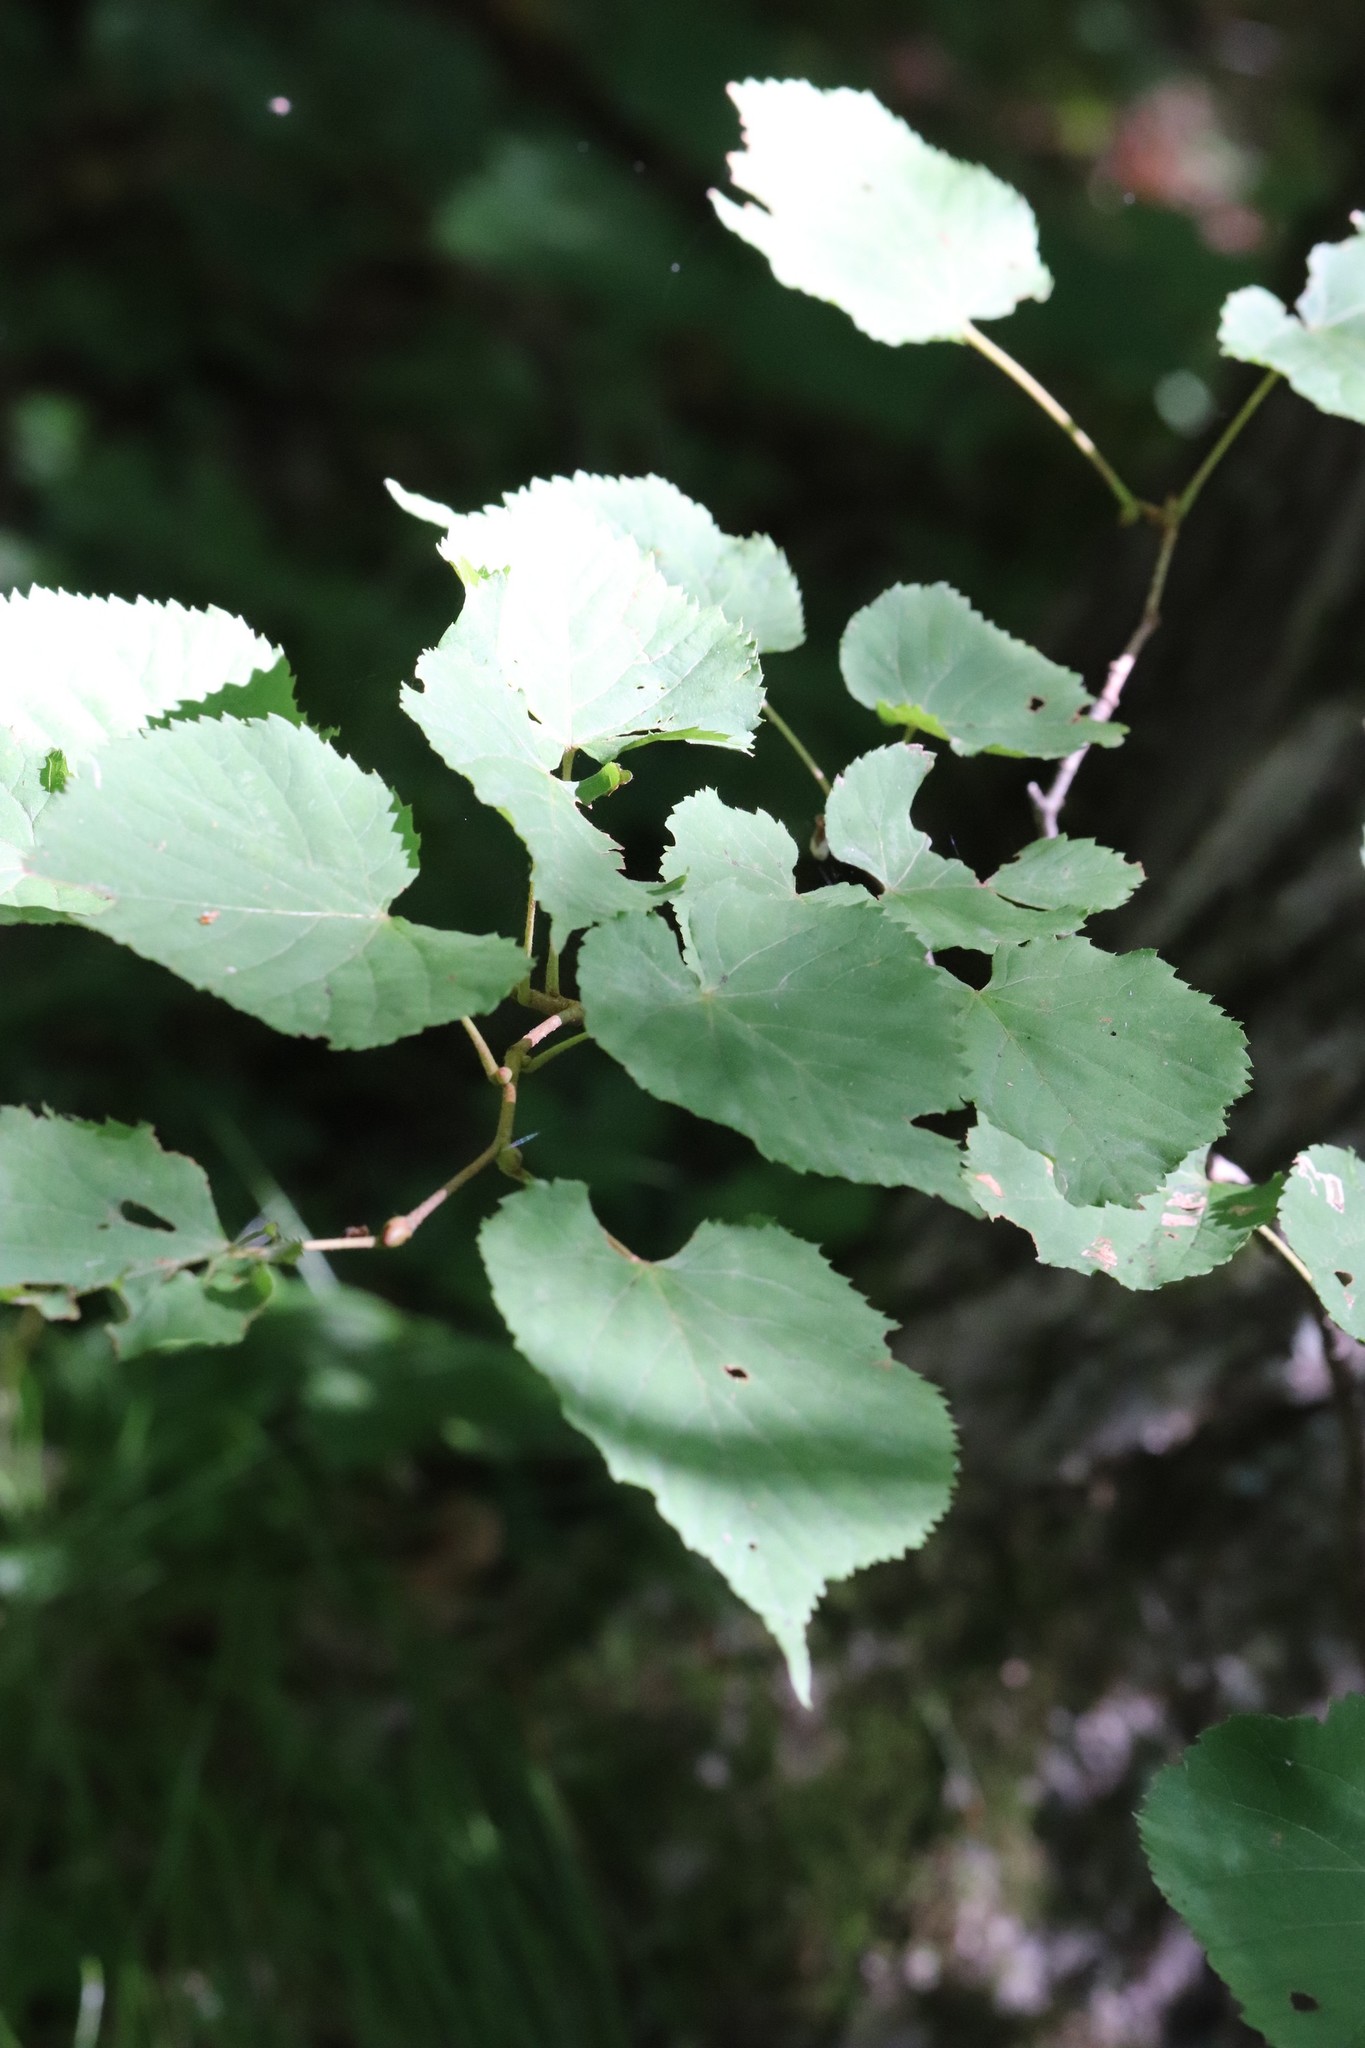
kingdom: Plantae
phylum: Tracheophyta
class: Magnoliopsida
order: Malvales
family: Malvaceae
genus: Tilia
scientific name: Tilia amurensis
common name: Amur lime
